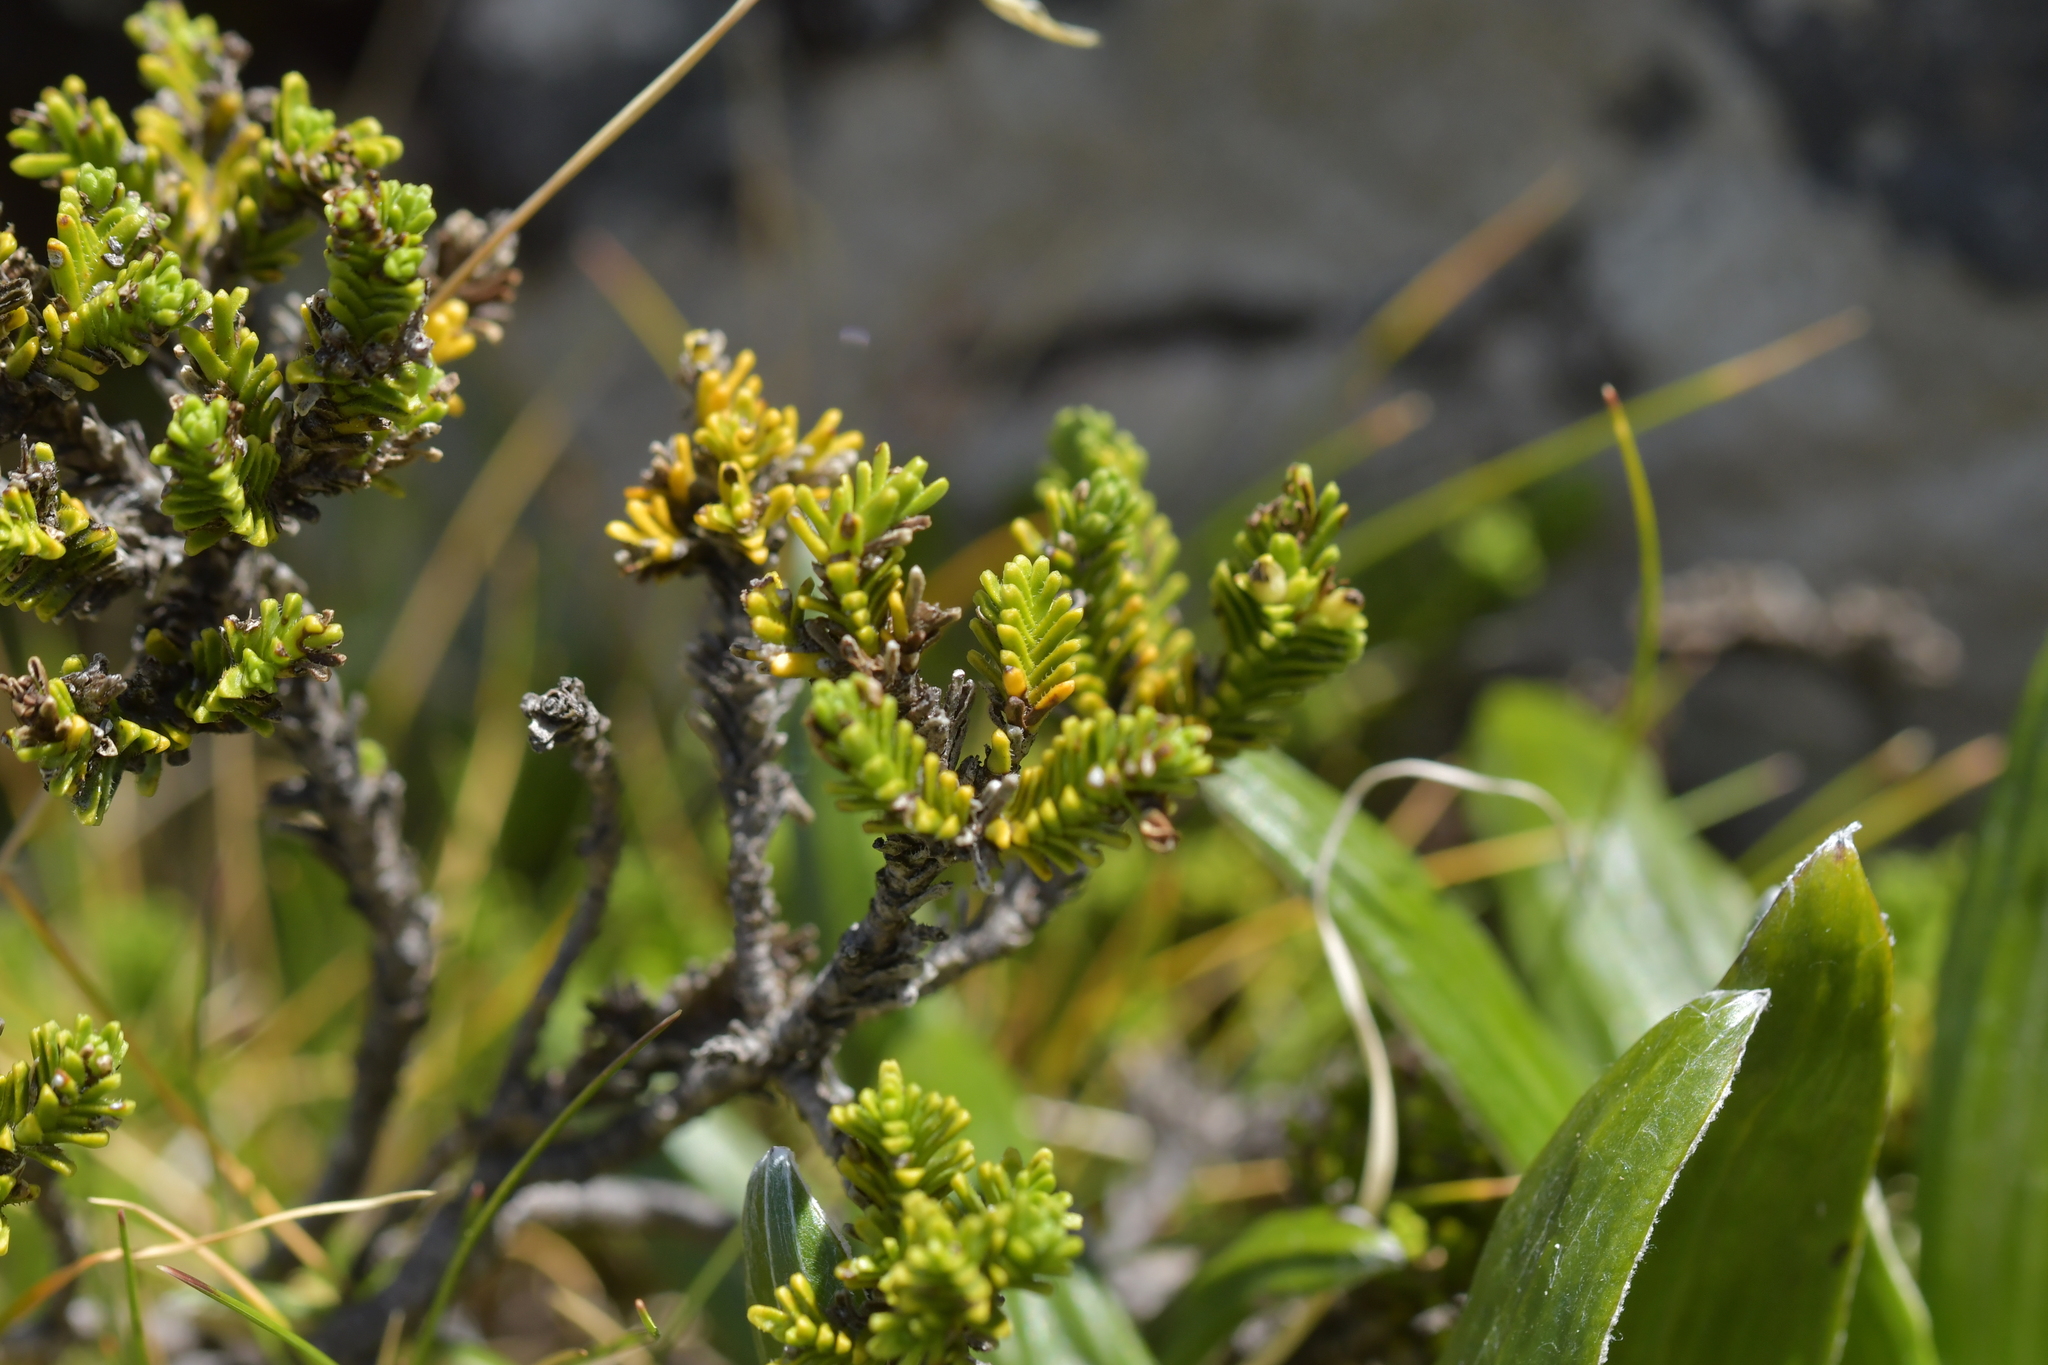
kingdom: Plantae
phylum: Tracheophyta
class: Magnoliopsida
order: Lamiales
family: Plantaginaceae
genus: Veronica
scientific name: Veronica hookeri
